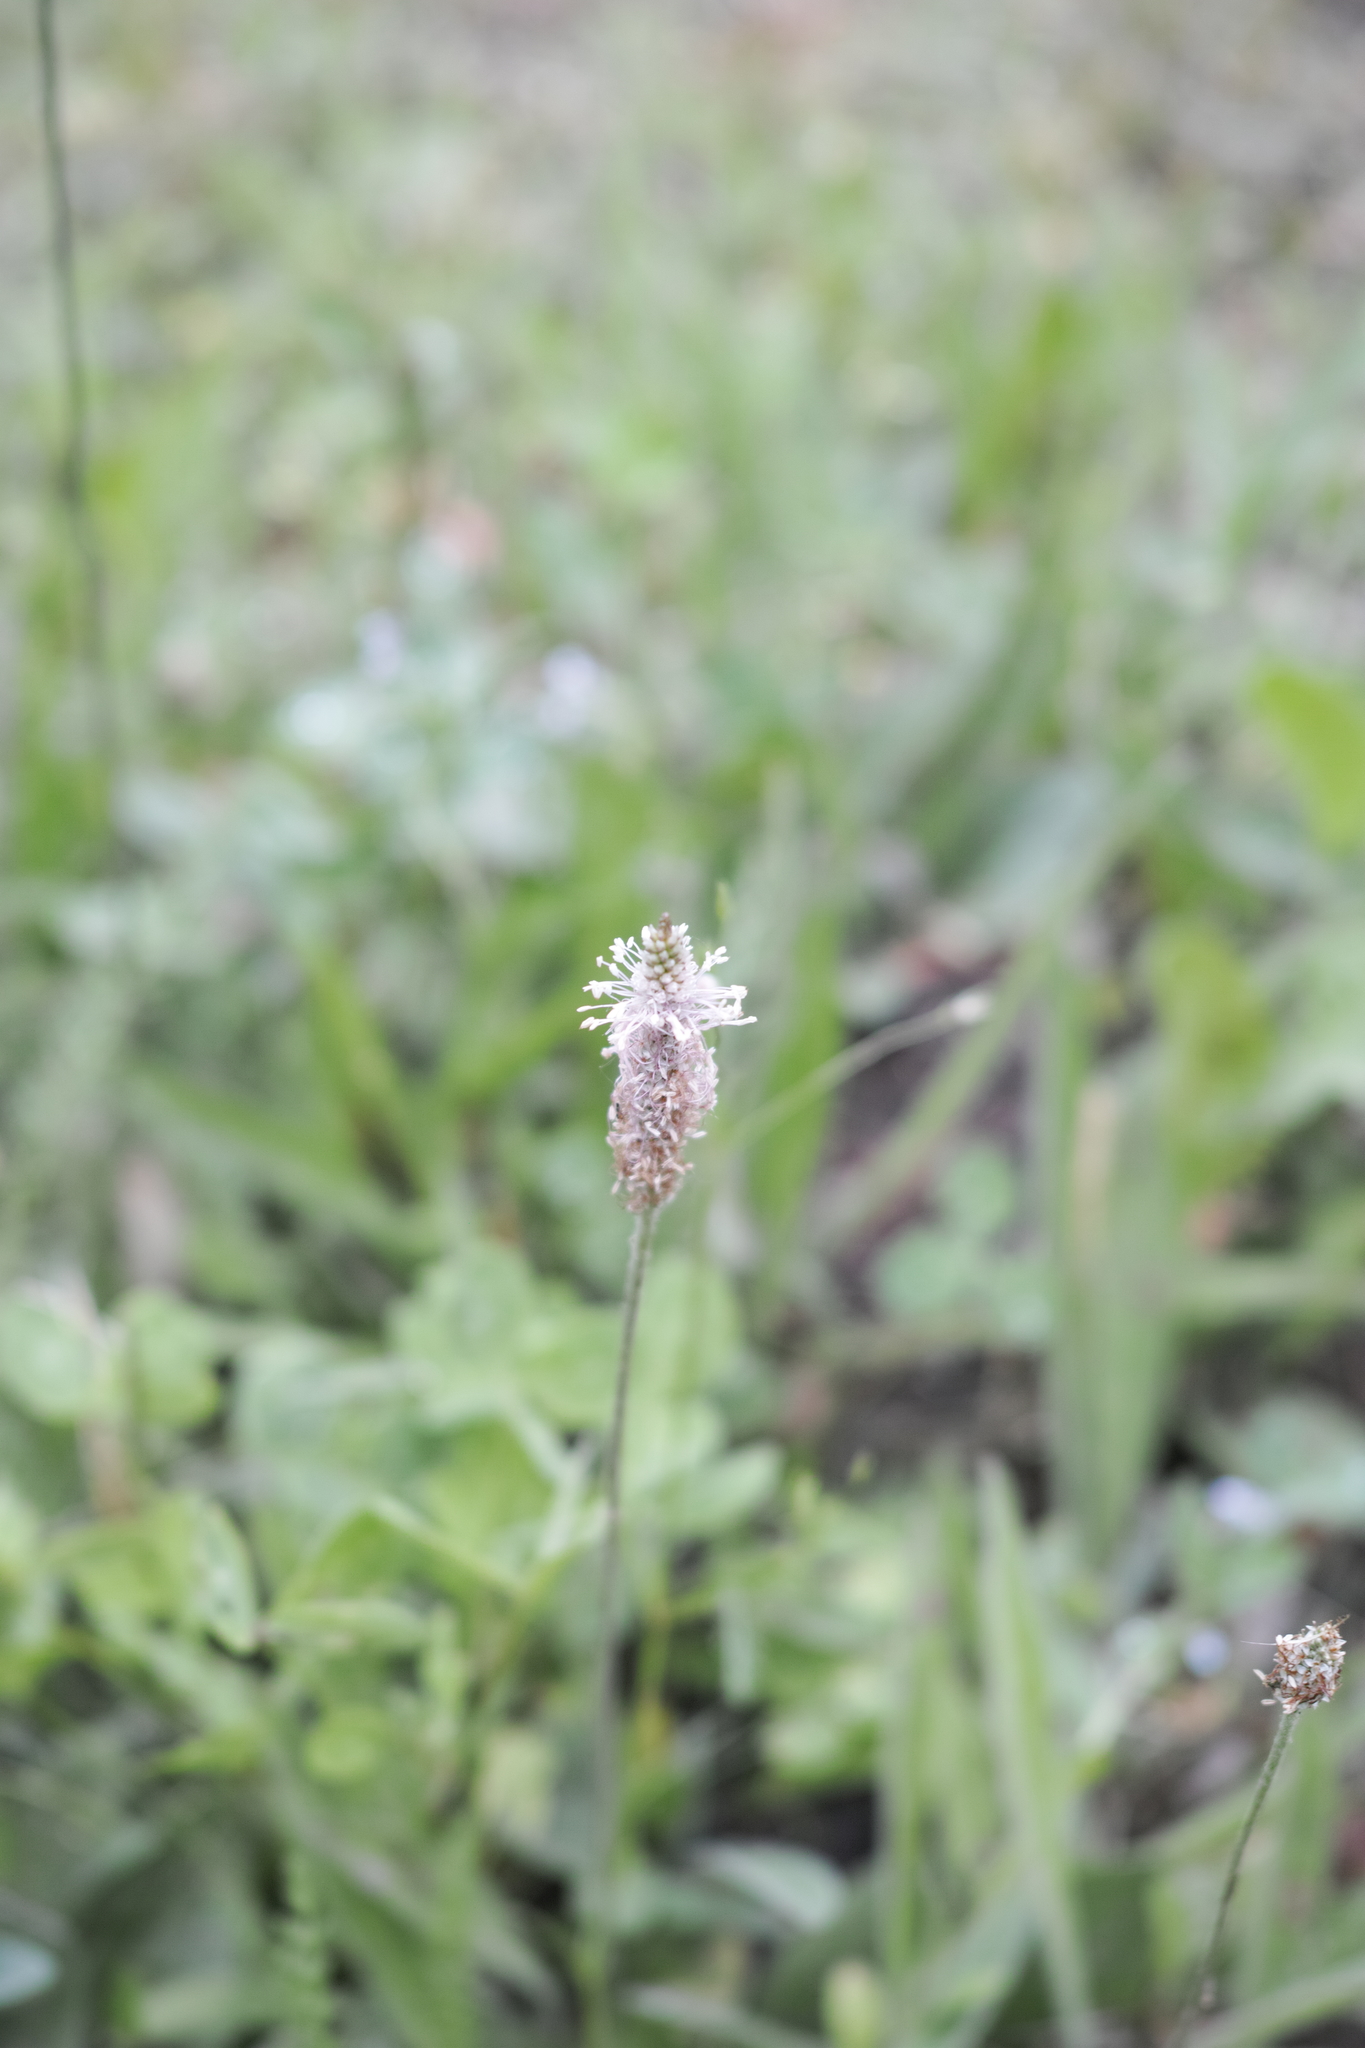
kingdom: Plantae
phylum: Tracheophyta
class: Magnoliopsida
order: Lamiales
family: Plantaginaceae
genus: Plantago
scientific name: Plantago media
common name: Hoary plantain
